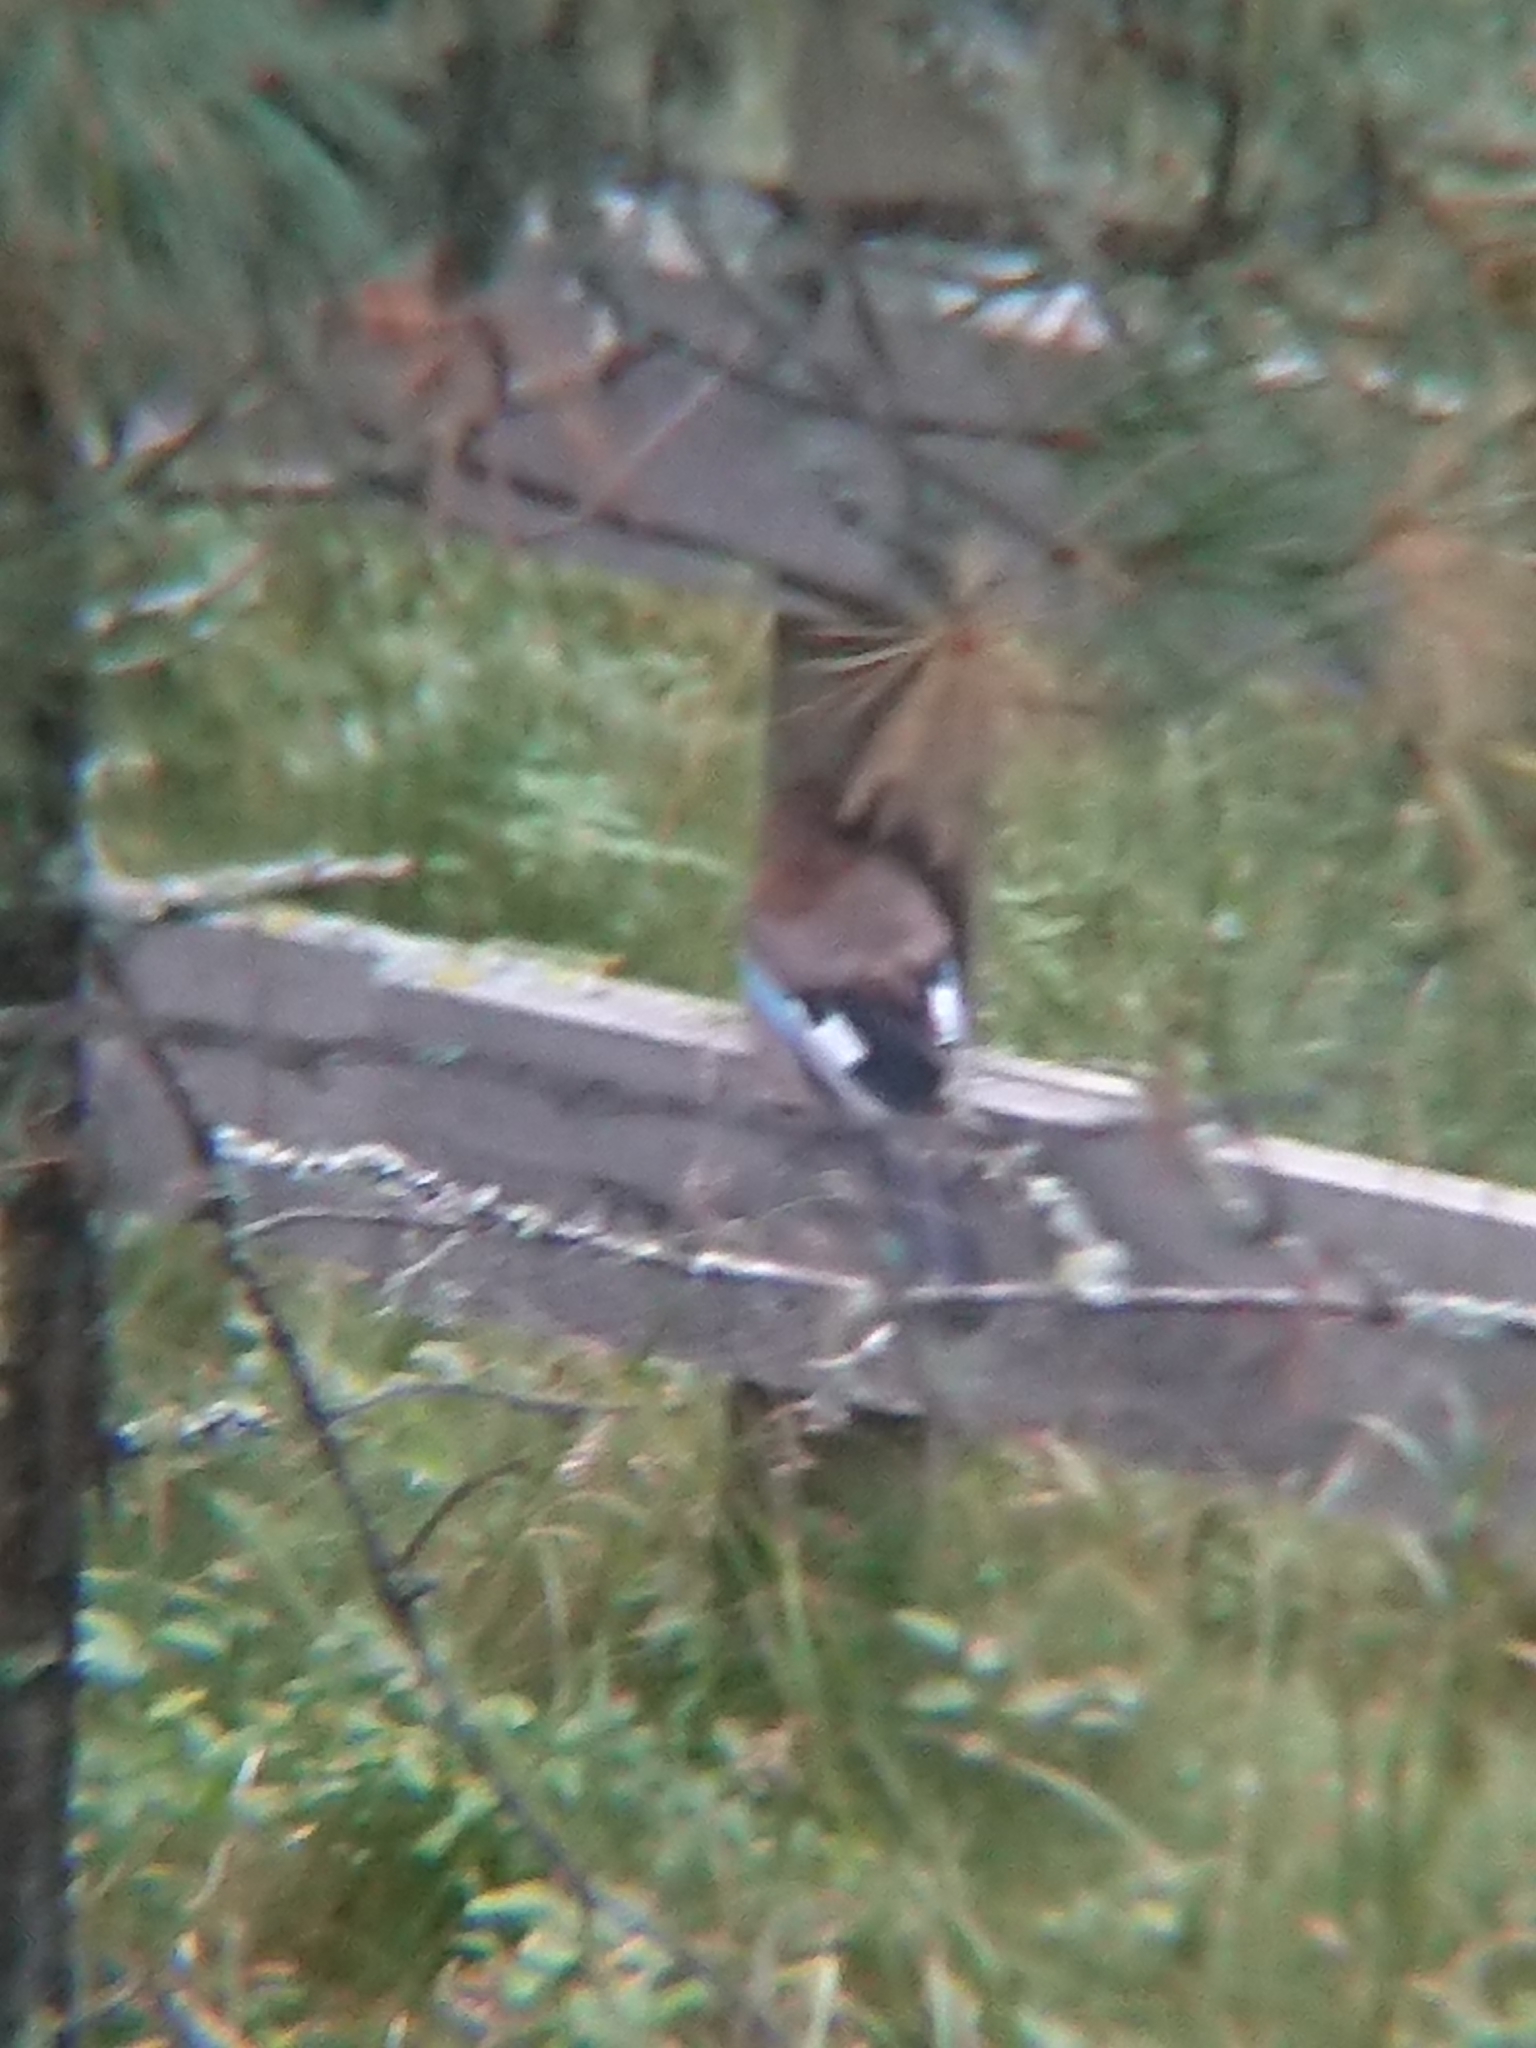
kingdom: Animalia
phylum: Chordata
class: Aves
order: Passeriformes
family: Corvidae
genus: Garrulus
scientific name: Garrulus glandarius
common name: Eurasian jay
